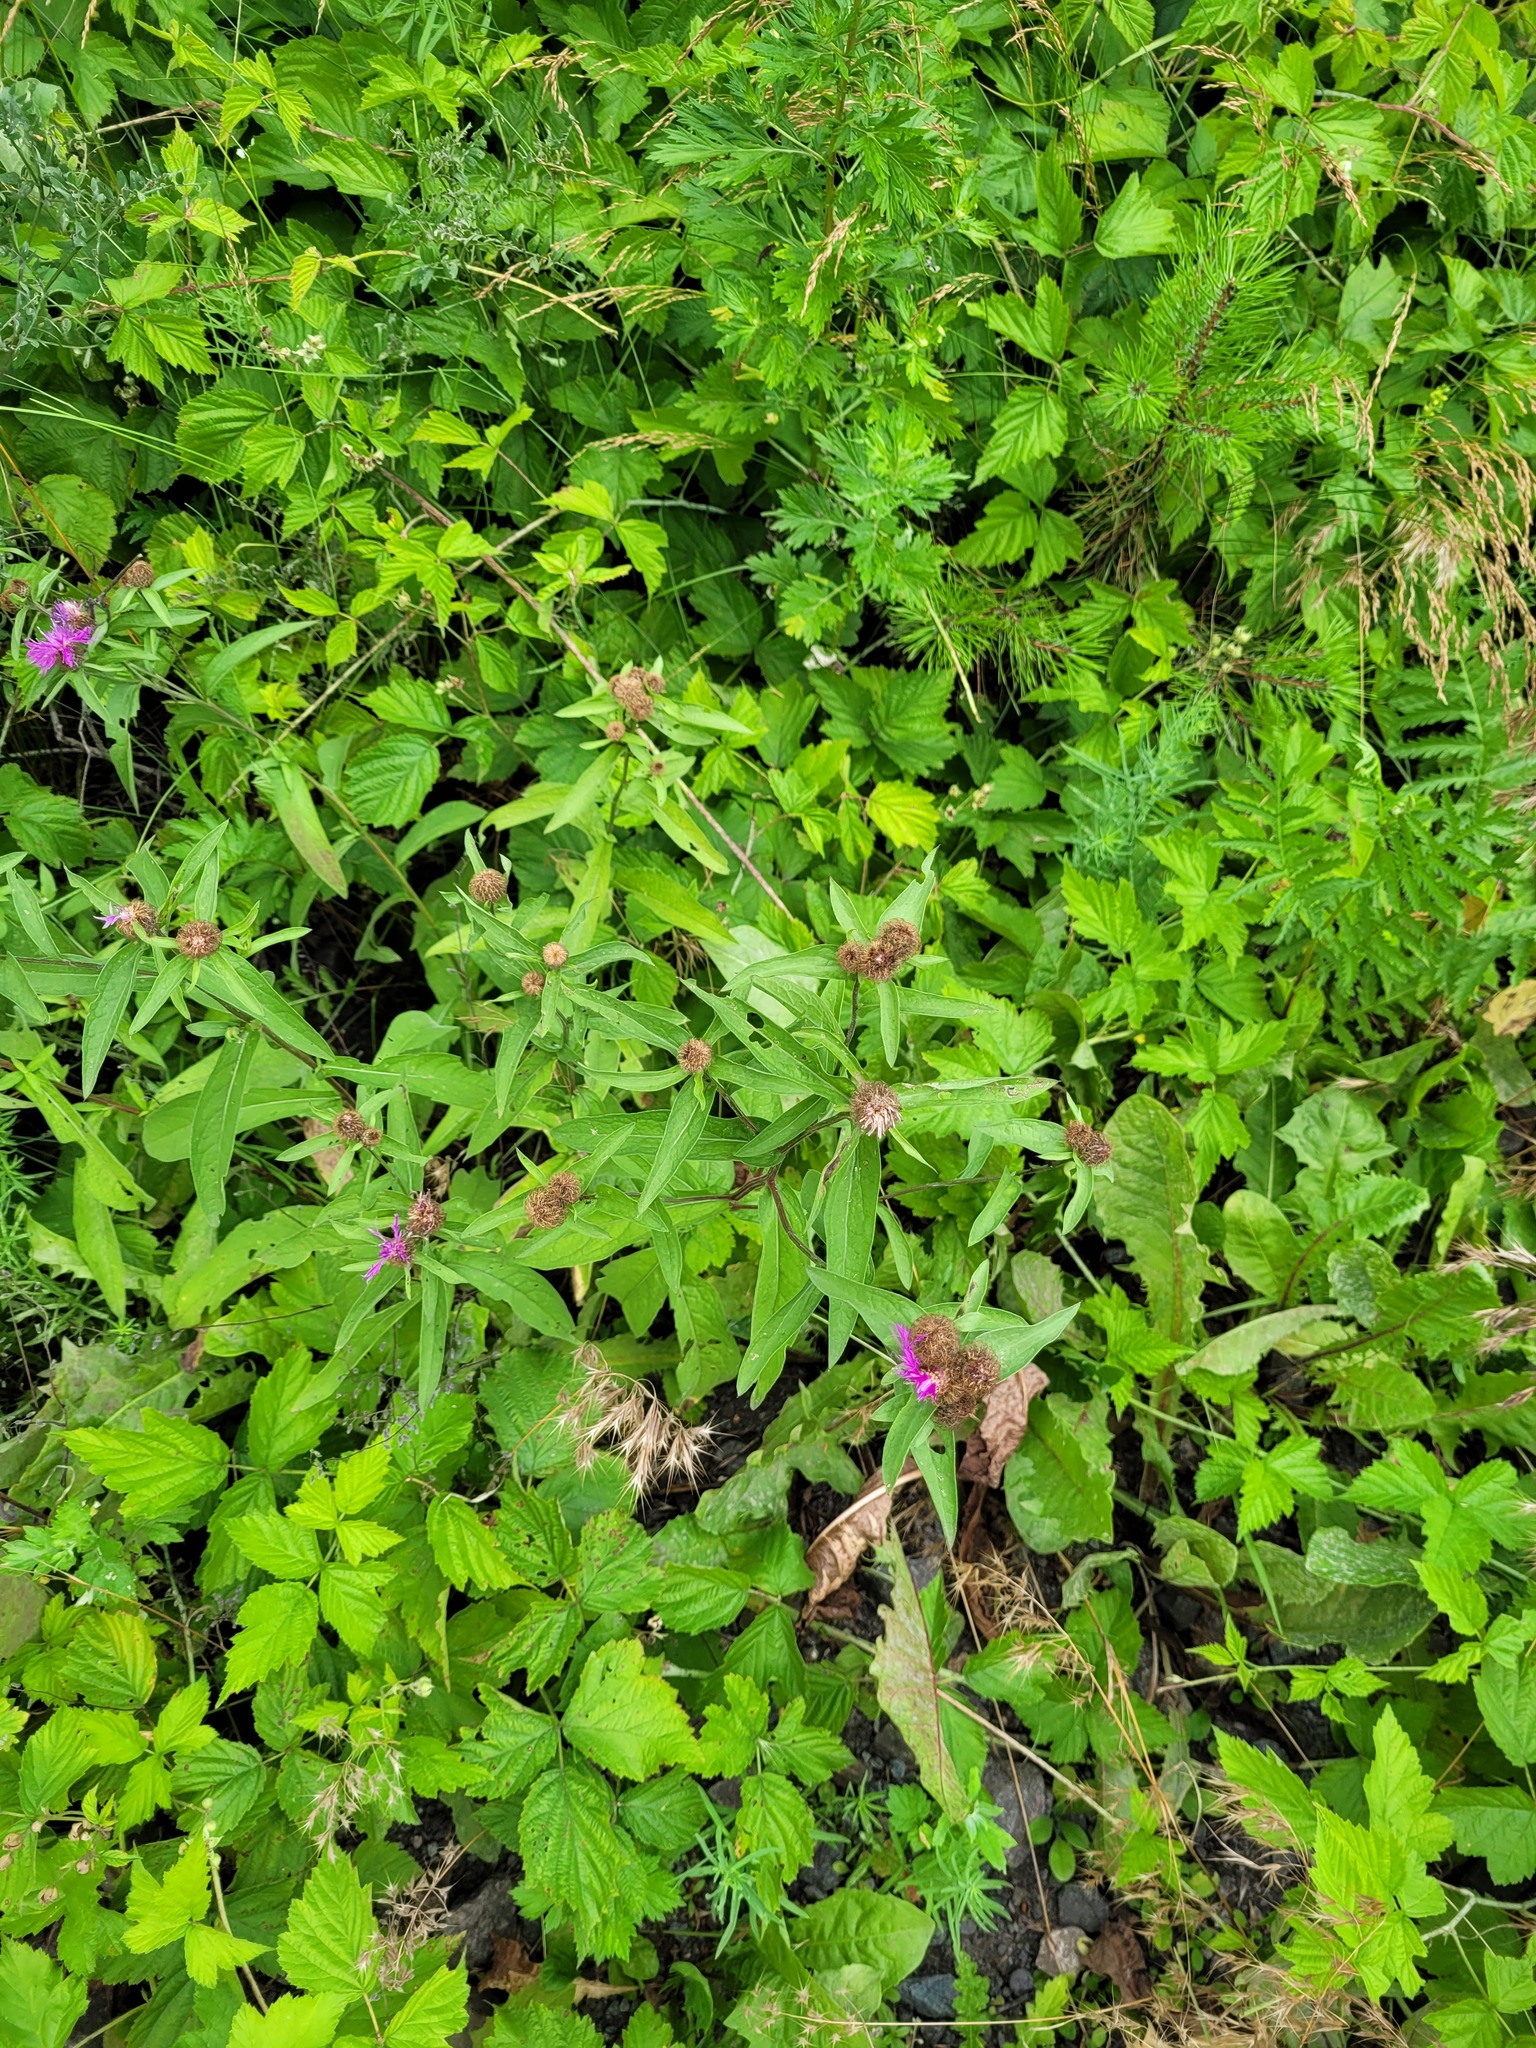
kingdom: Plantae
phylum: Tracheophyta
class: Magnoliopsida
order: Asterales
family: Asteraceae
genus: Centaurea
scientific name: Centaurea pseudophrygia
